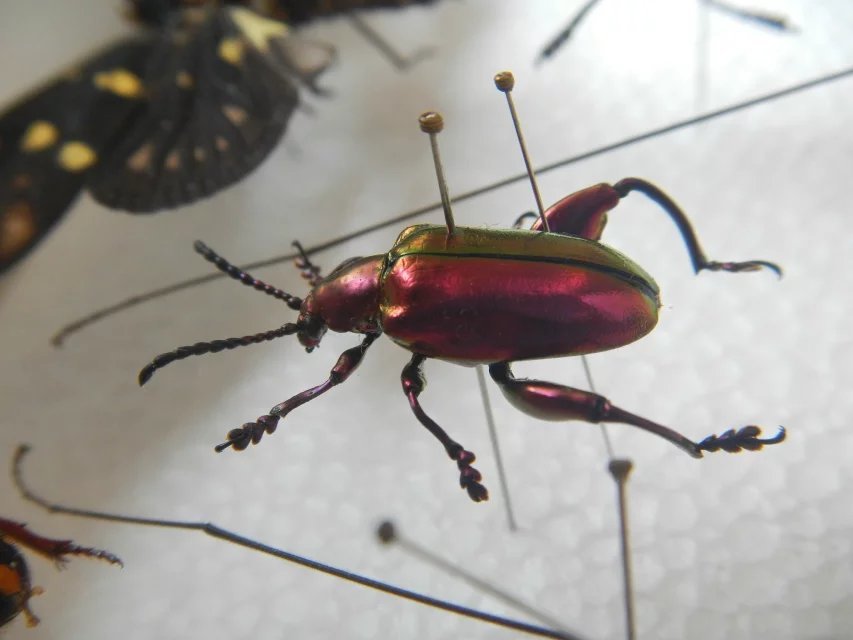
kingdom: Animalia
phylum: Arthropoda
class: Insecta
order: Coleoptera
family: Chrysomelidae
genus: Sagra
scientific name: Sagra femorata
